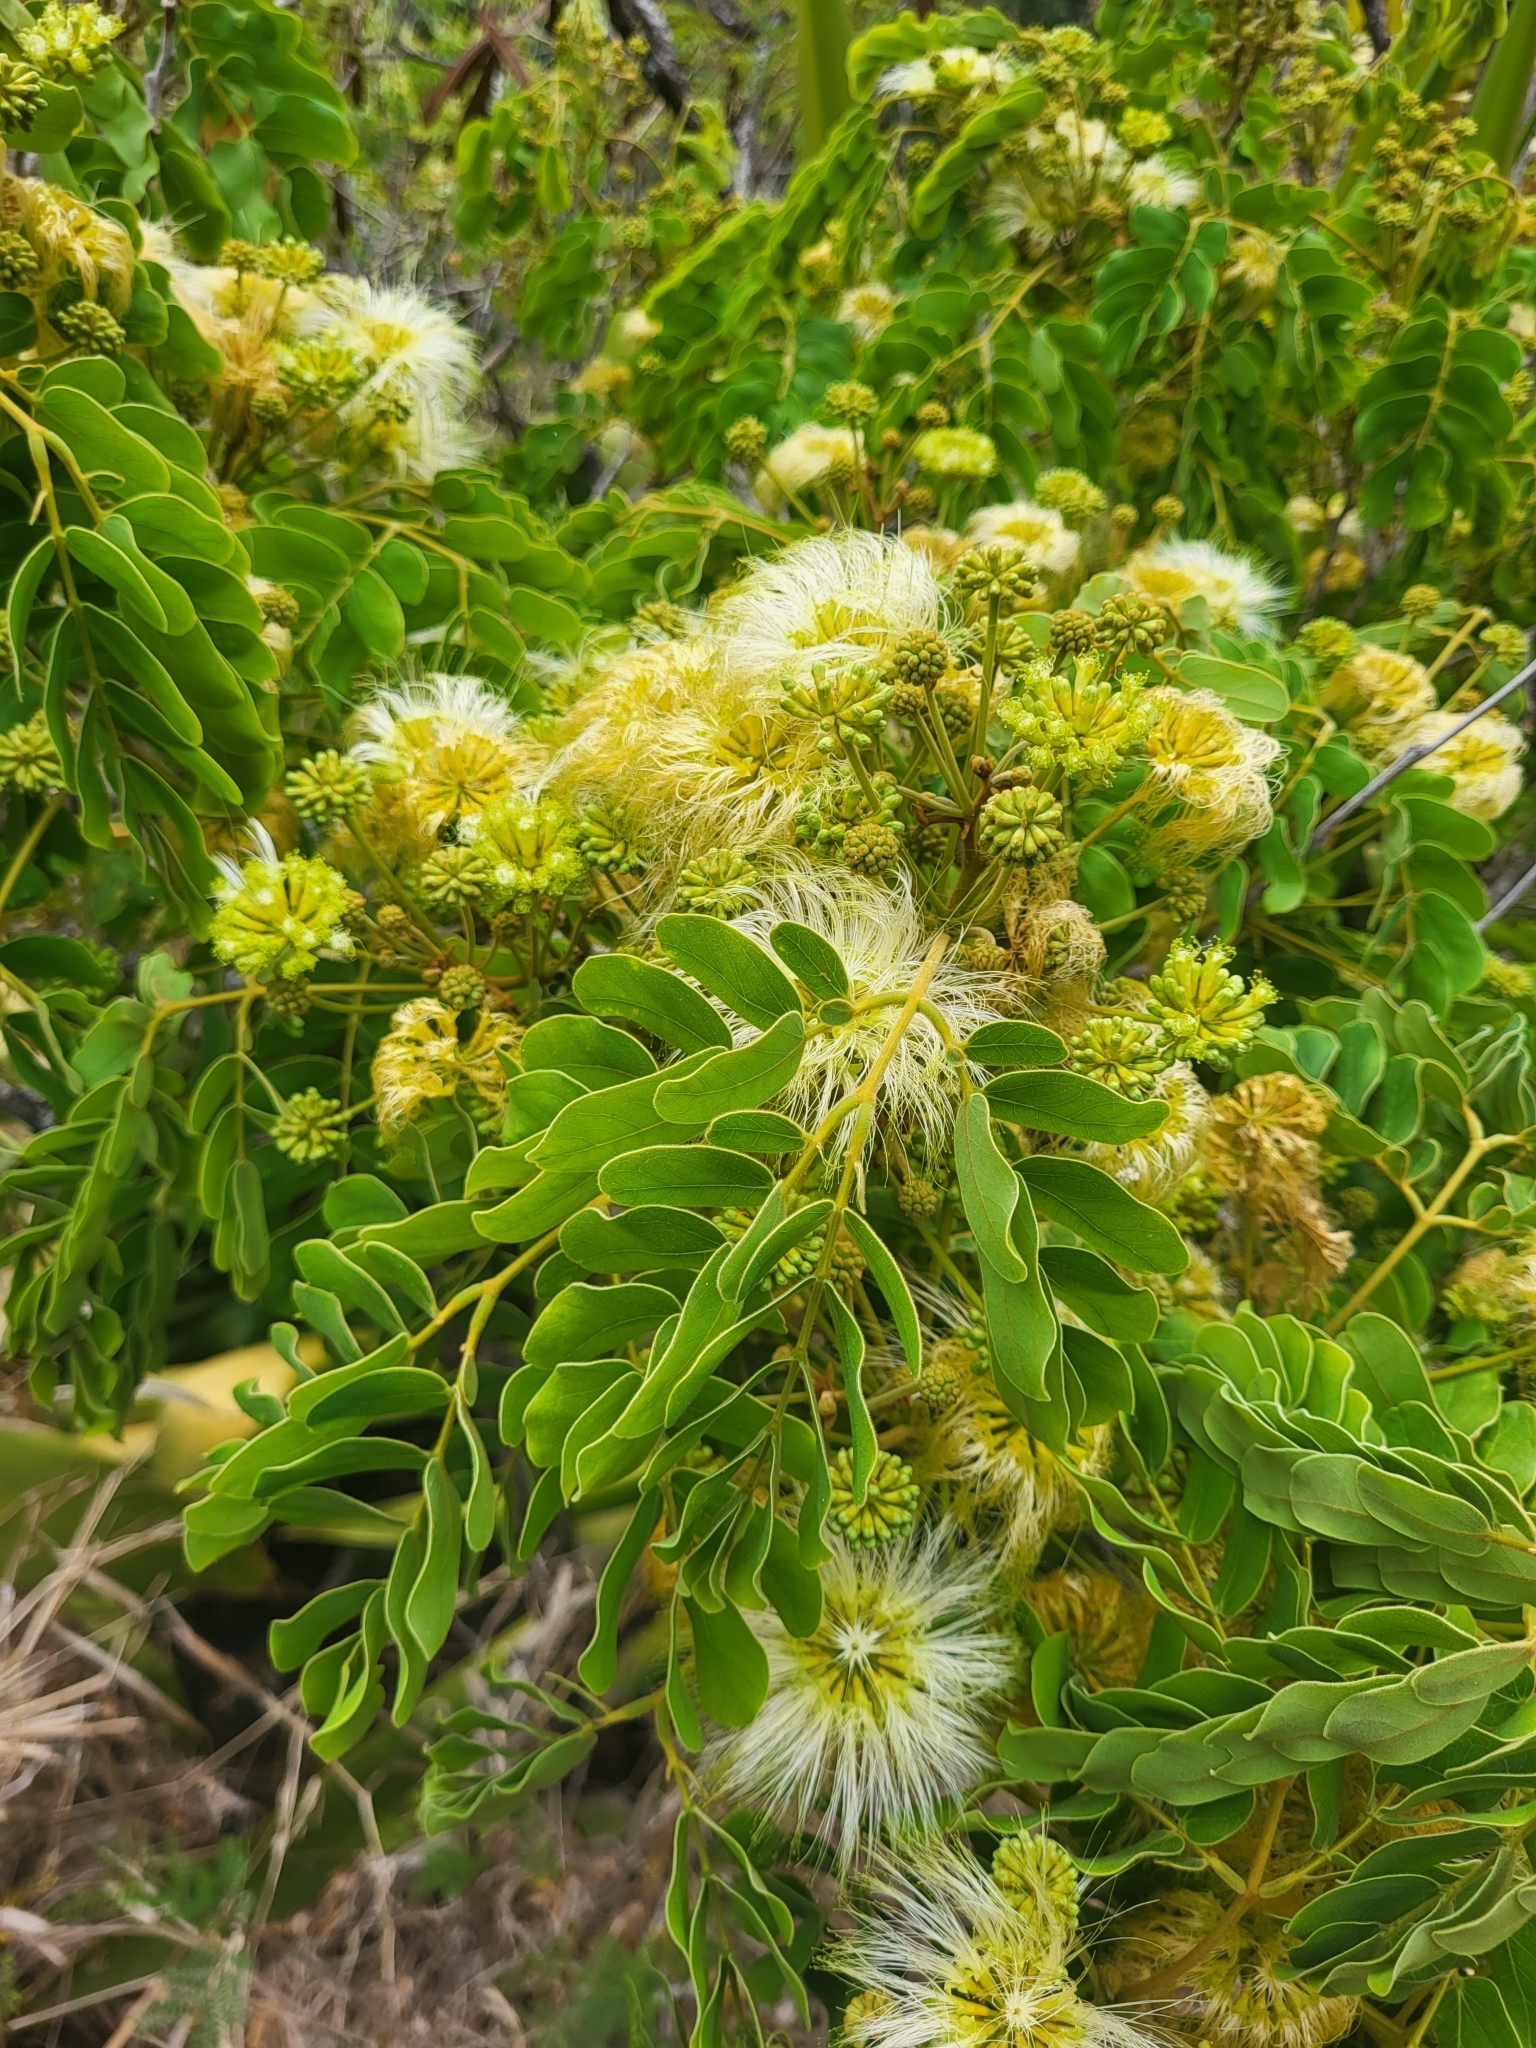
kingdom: Plantae
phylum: Tracheophyta
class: Magnoliopsida
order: Fabales
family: Fabaceae
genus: Albizia
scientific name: Albizia lebbeck
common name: Woman's tongue
